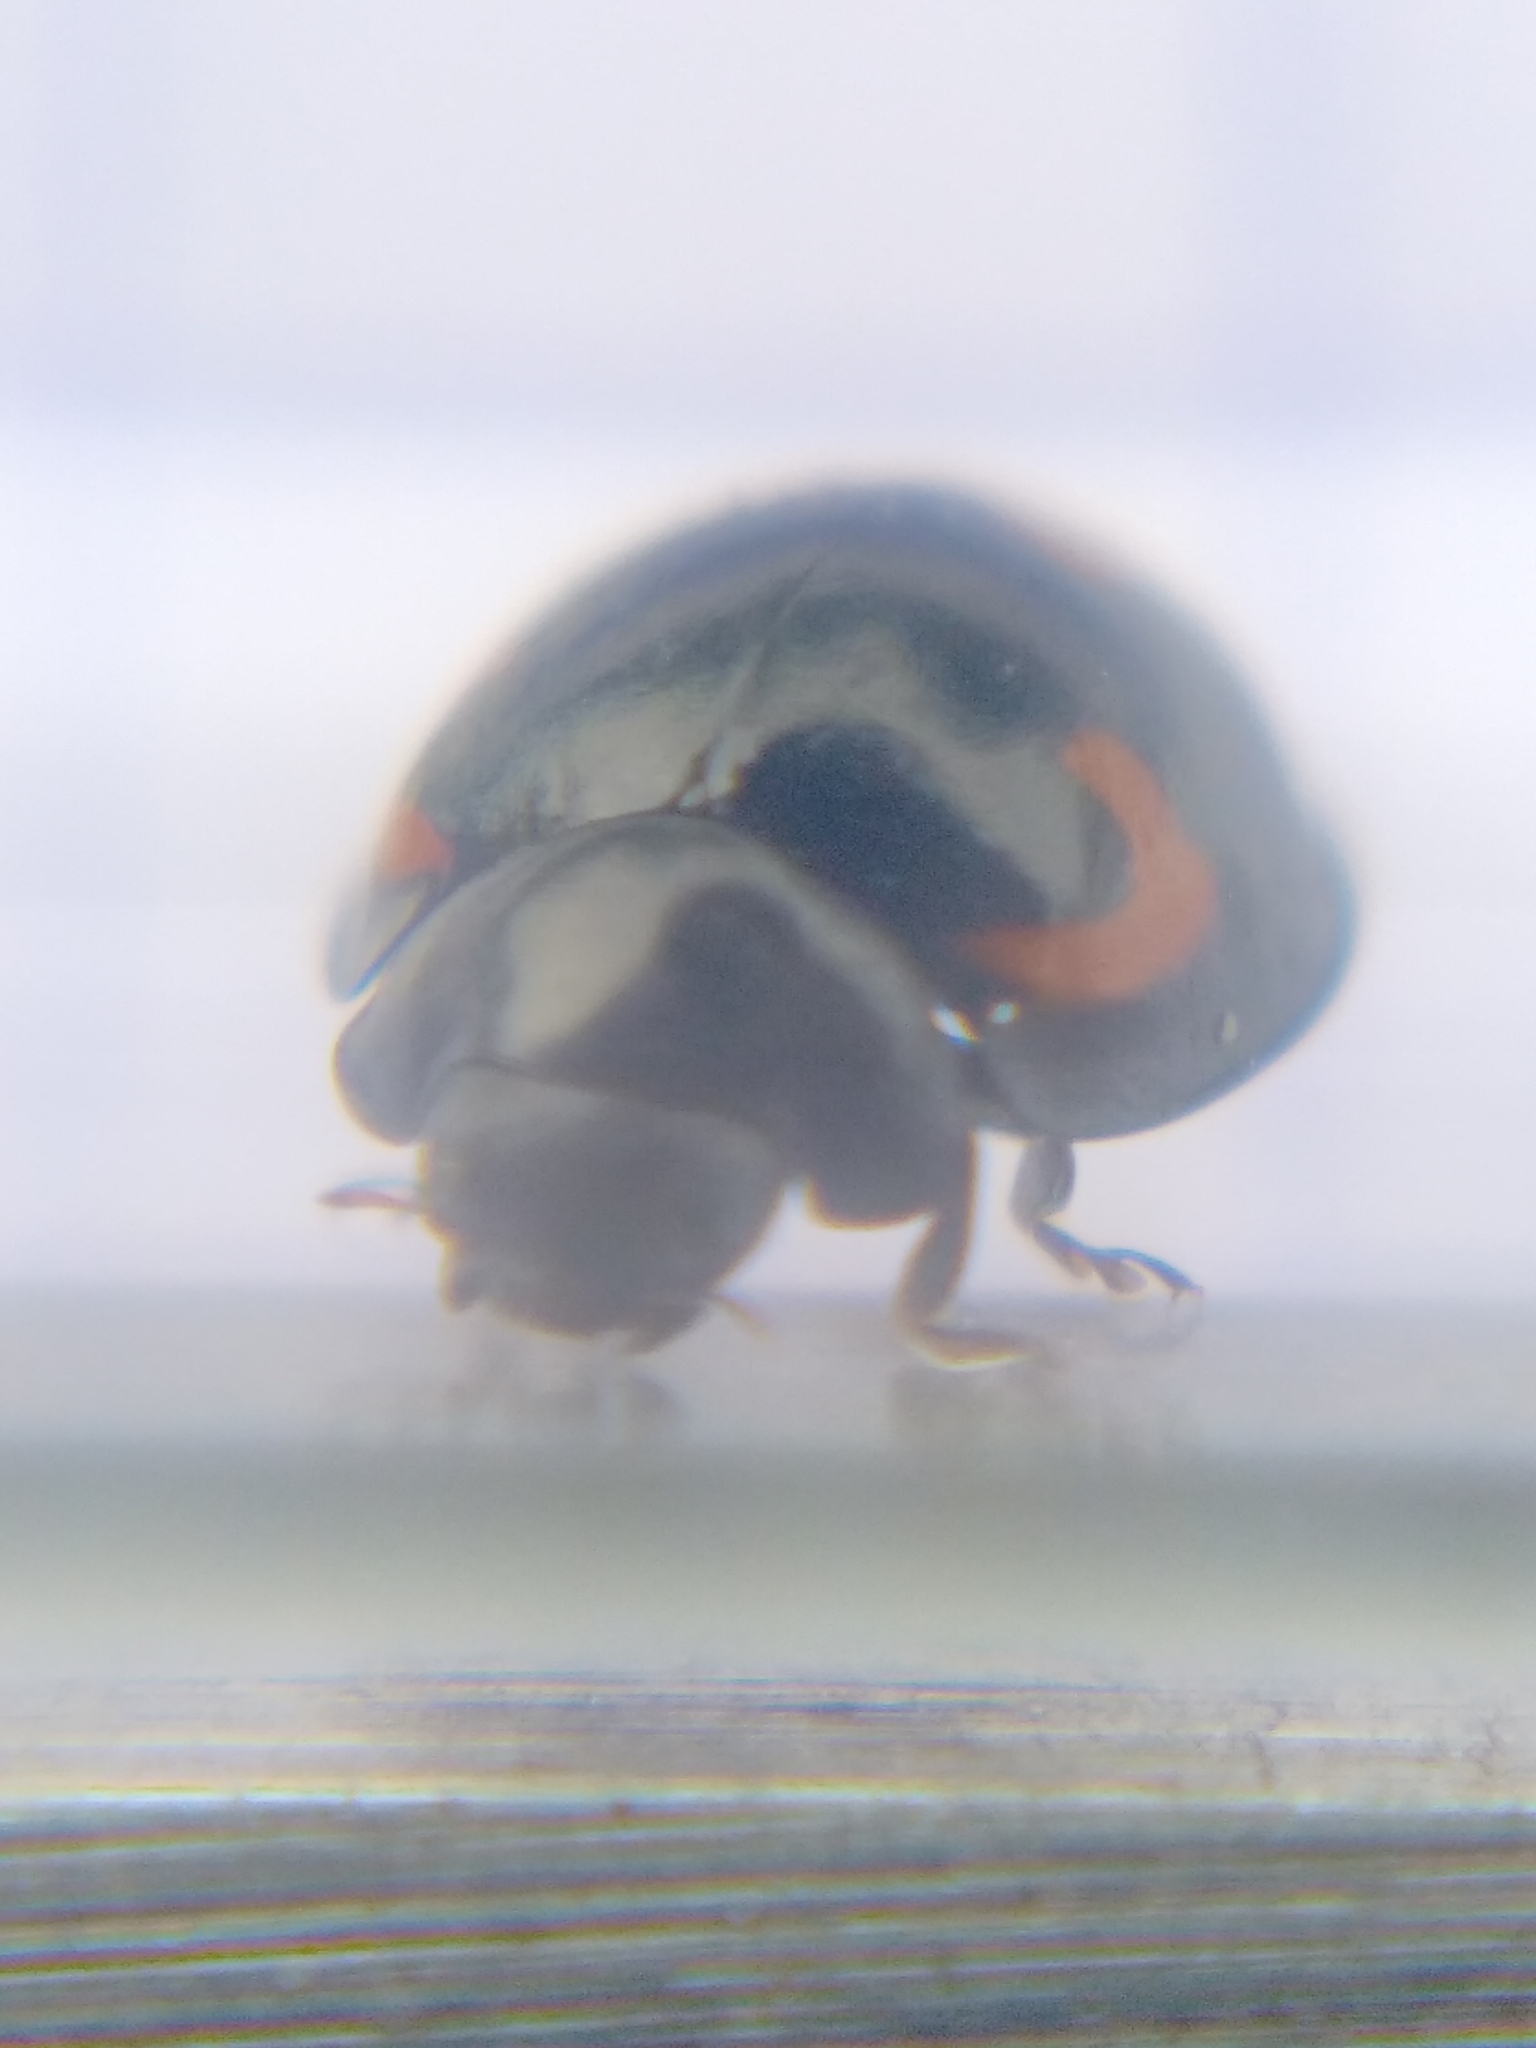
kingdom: Animalia
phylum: Arthropoda
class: Insecta
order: Coleoptera
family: Coccinellidae
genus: Brumus
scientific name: Brumus quadripustulatus
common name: Ladybird beetle
